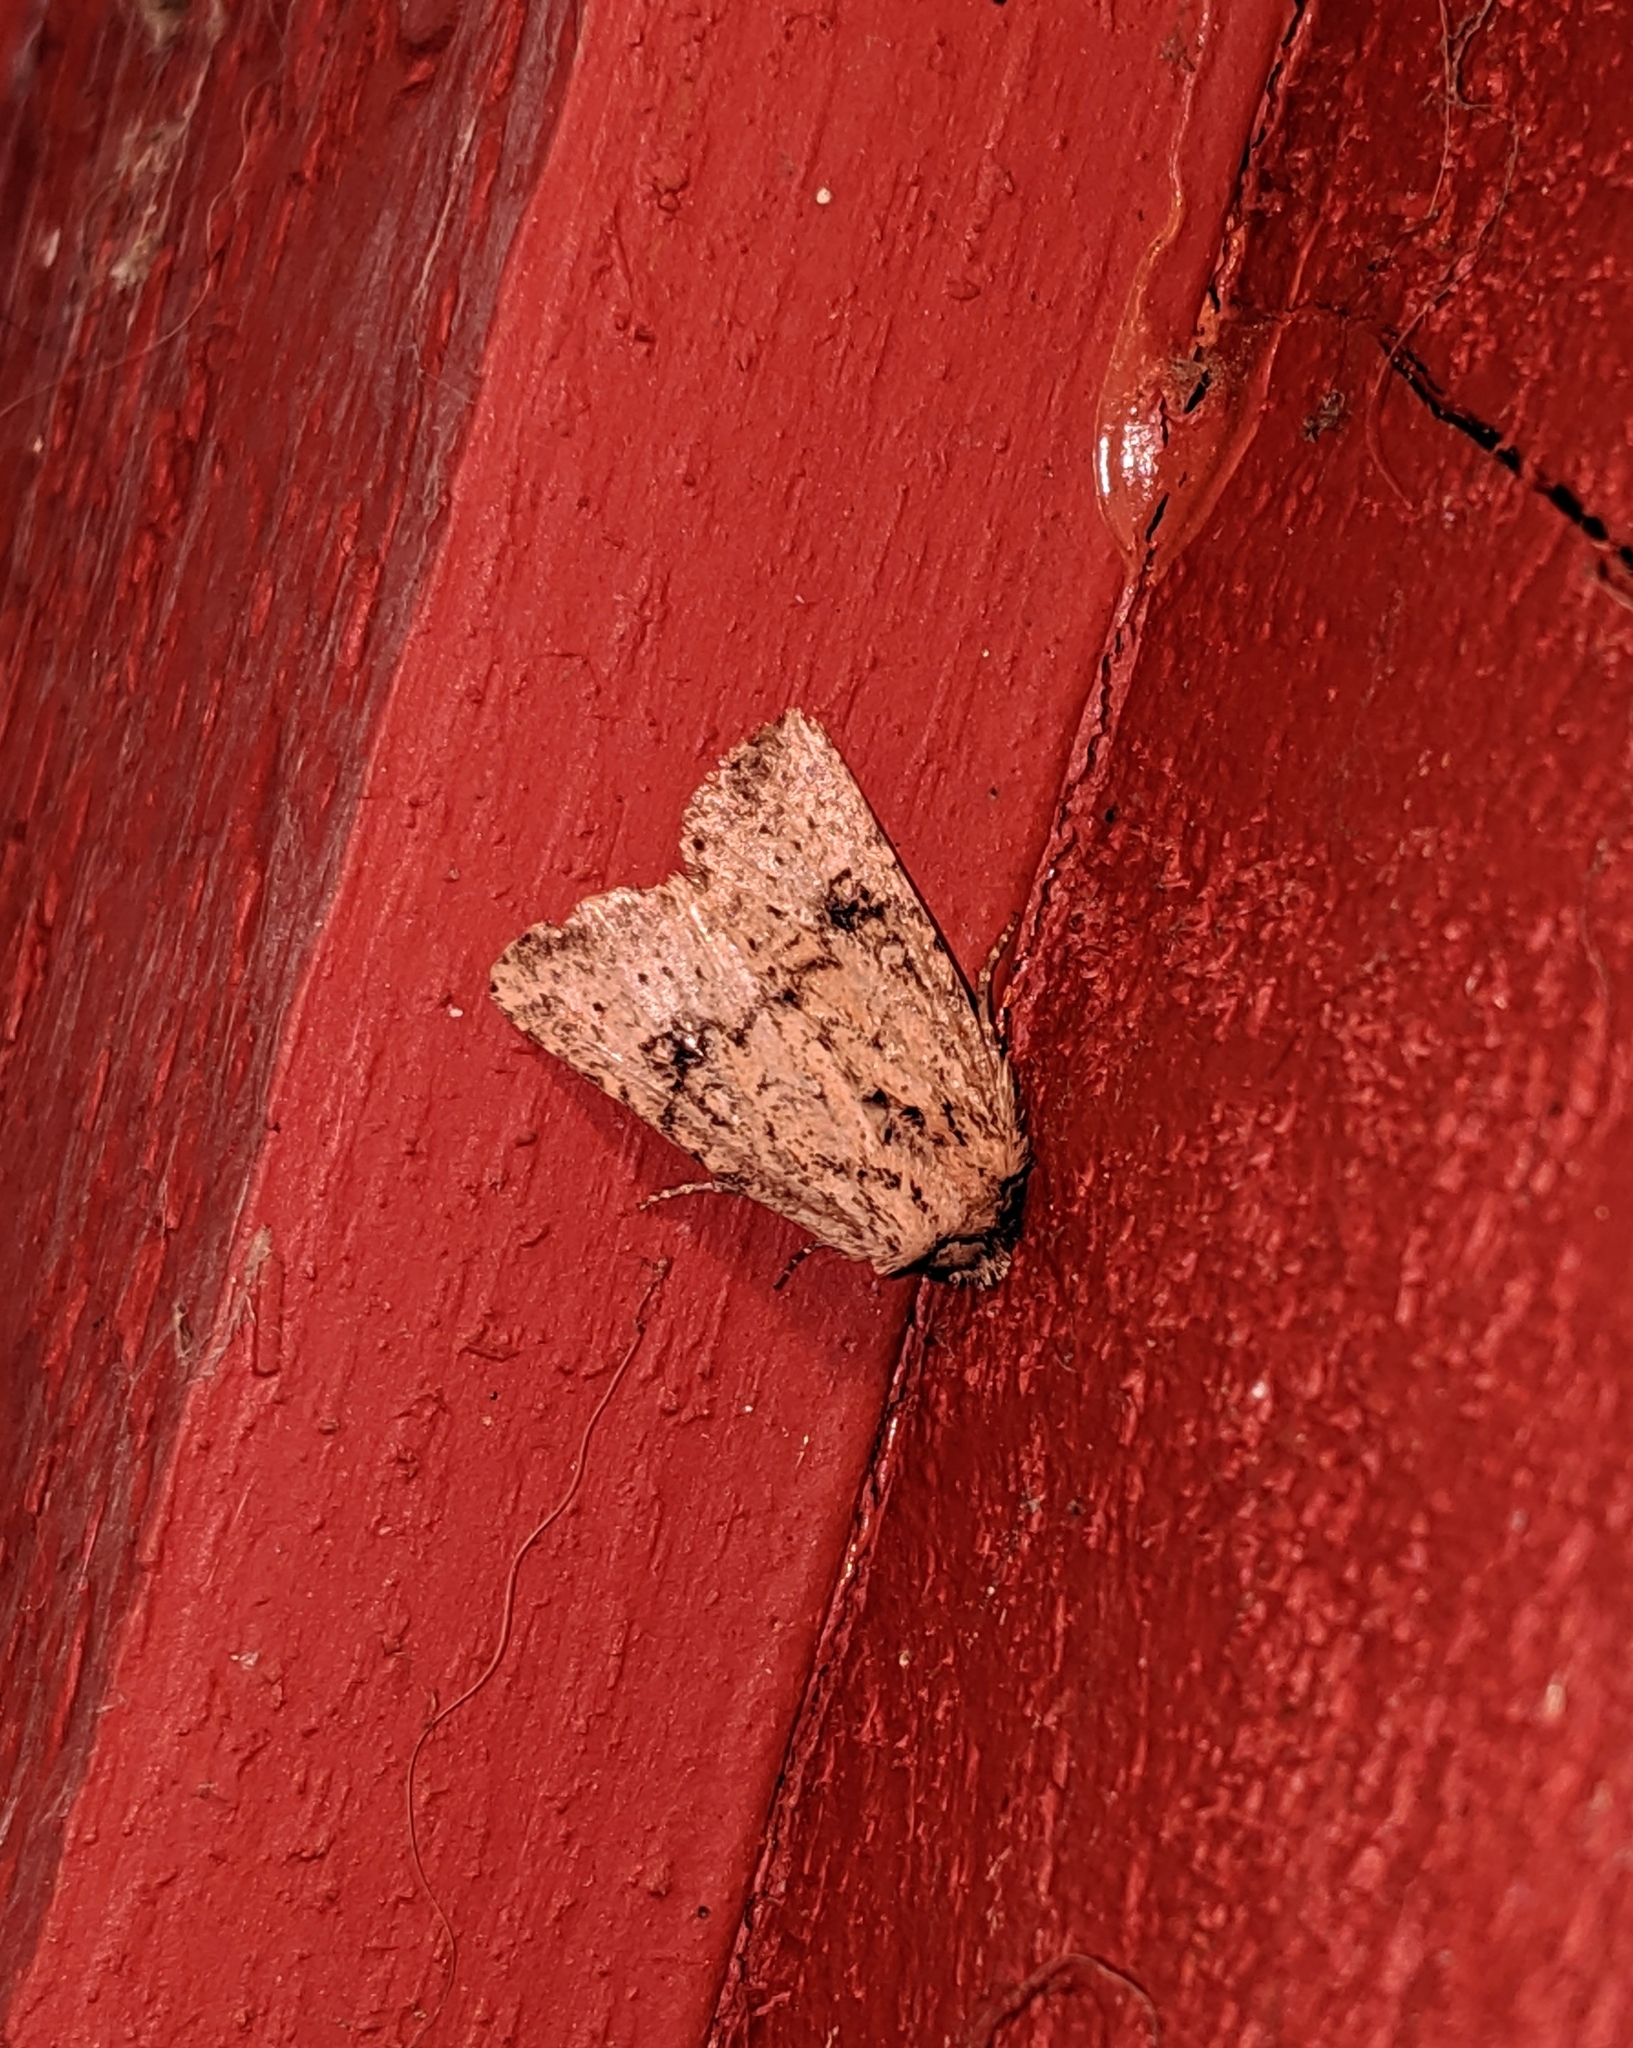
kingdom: Animalia
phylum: Arthropoda
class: Insecta
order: Lepidoptera
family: Noctuidae
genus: Homorthodes
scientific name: Homorthodes hanhami
